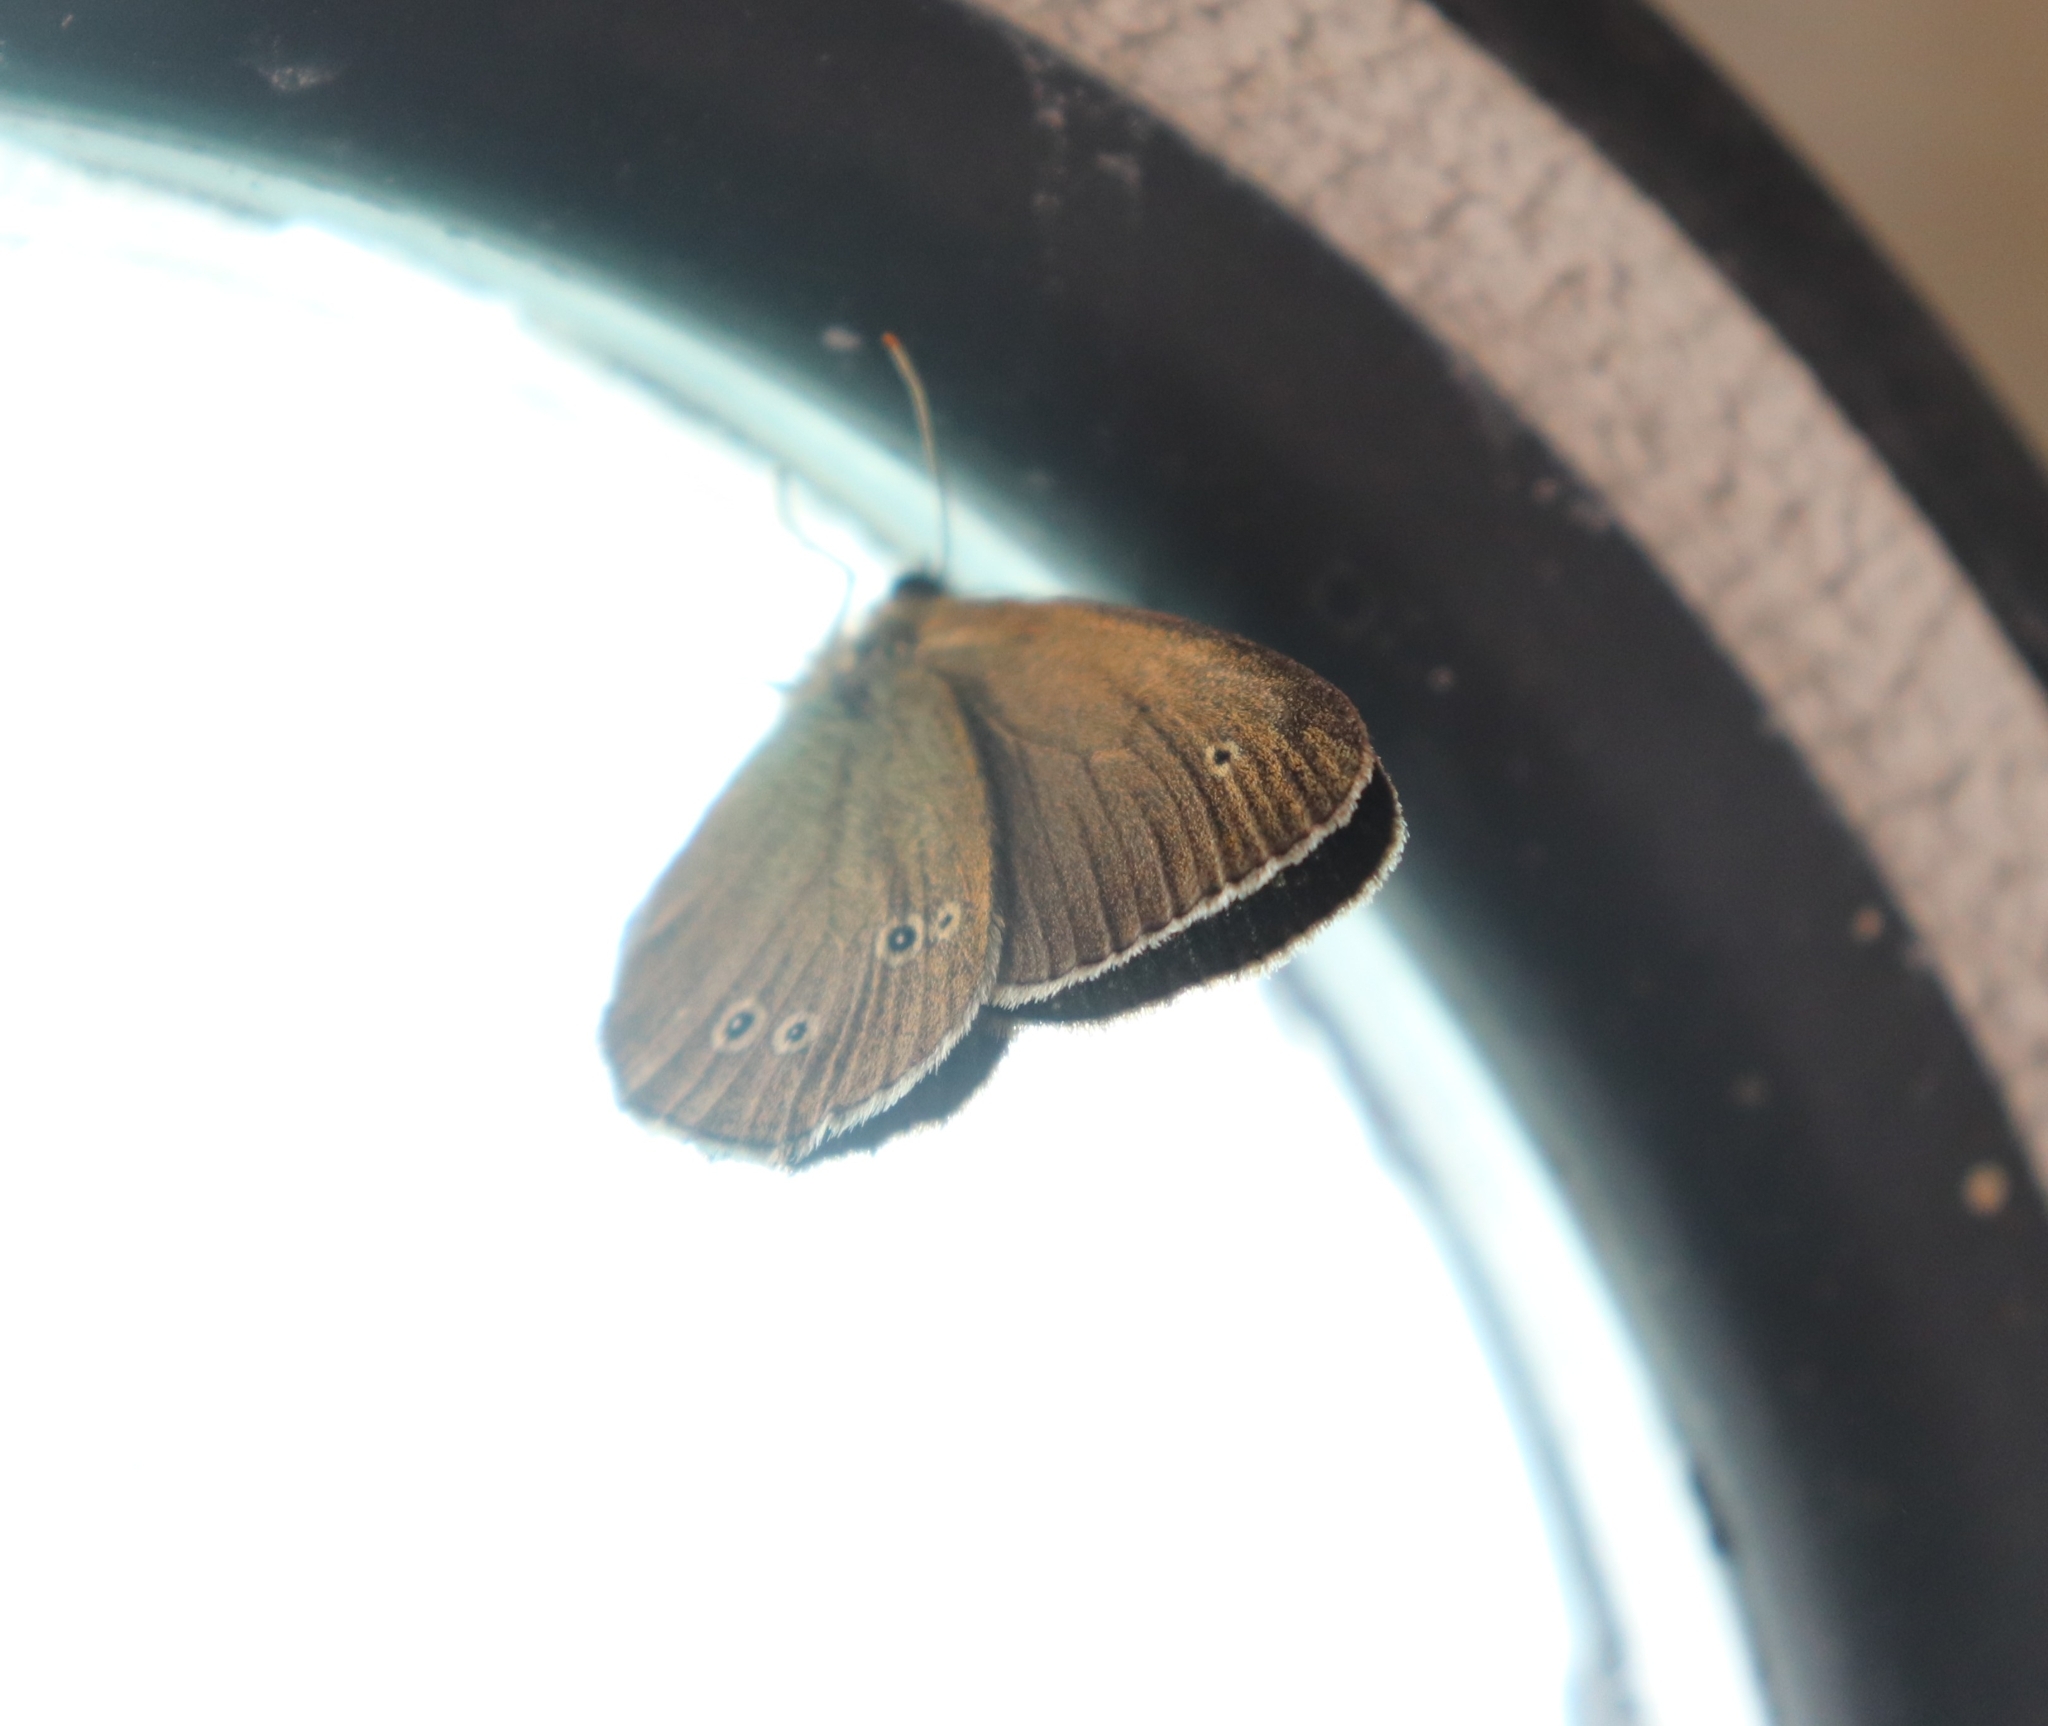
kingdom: Animalia
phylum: Arthropoda
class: Insecta
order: Lepidoptera
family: Nymphalidae
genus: Aphantopus
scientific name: Aphantopus hyperantus
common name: Ringlet
